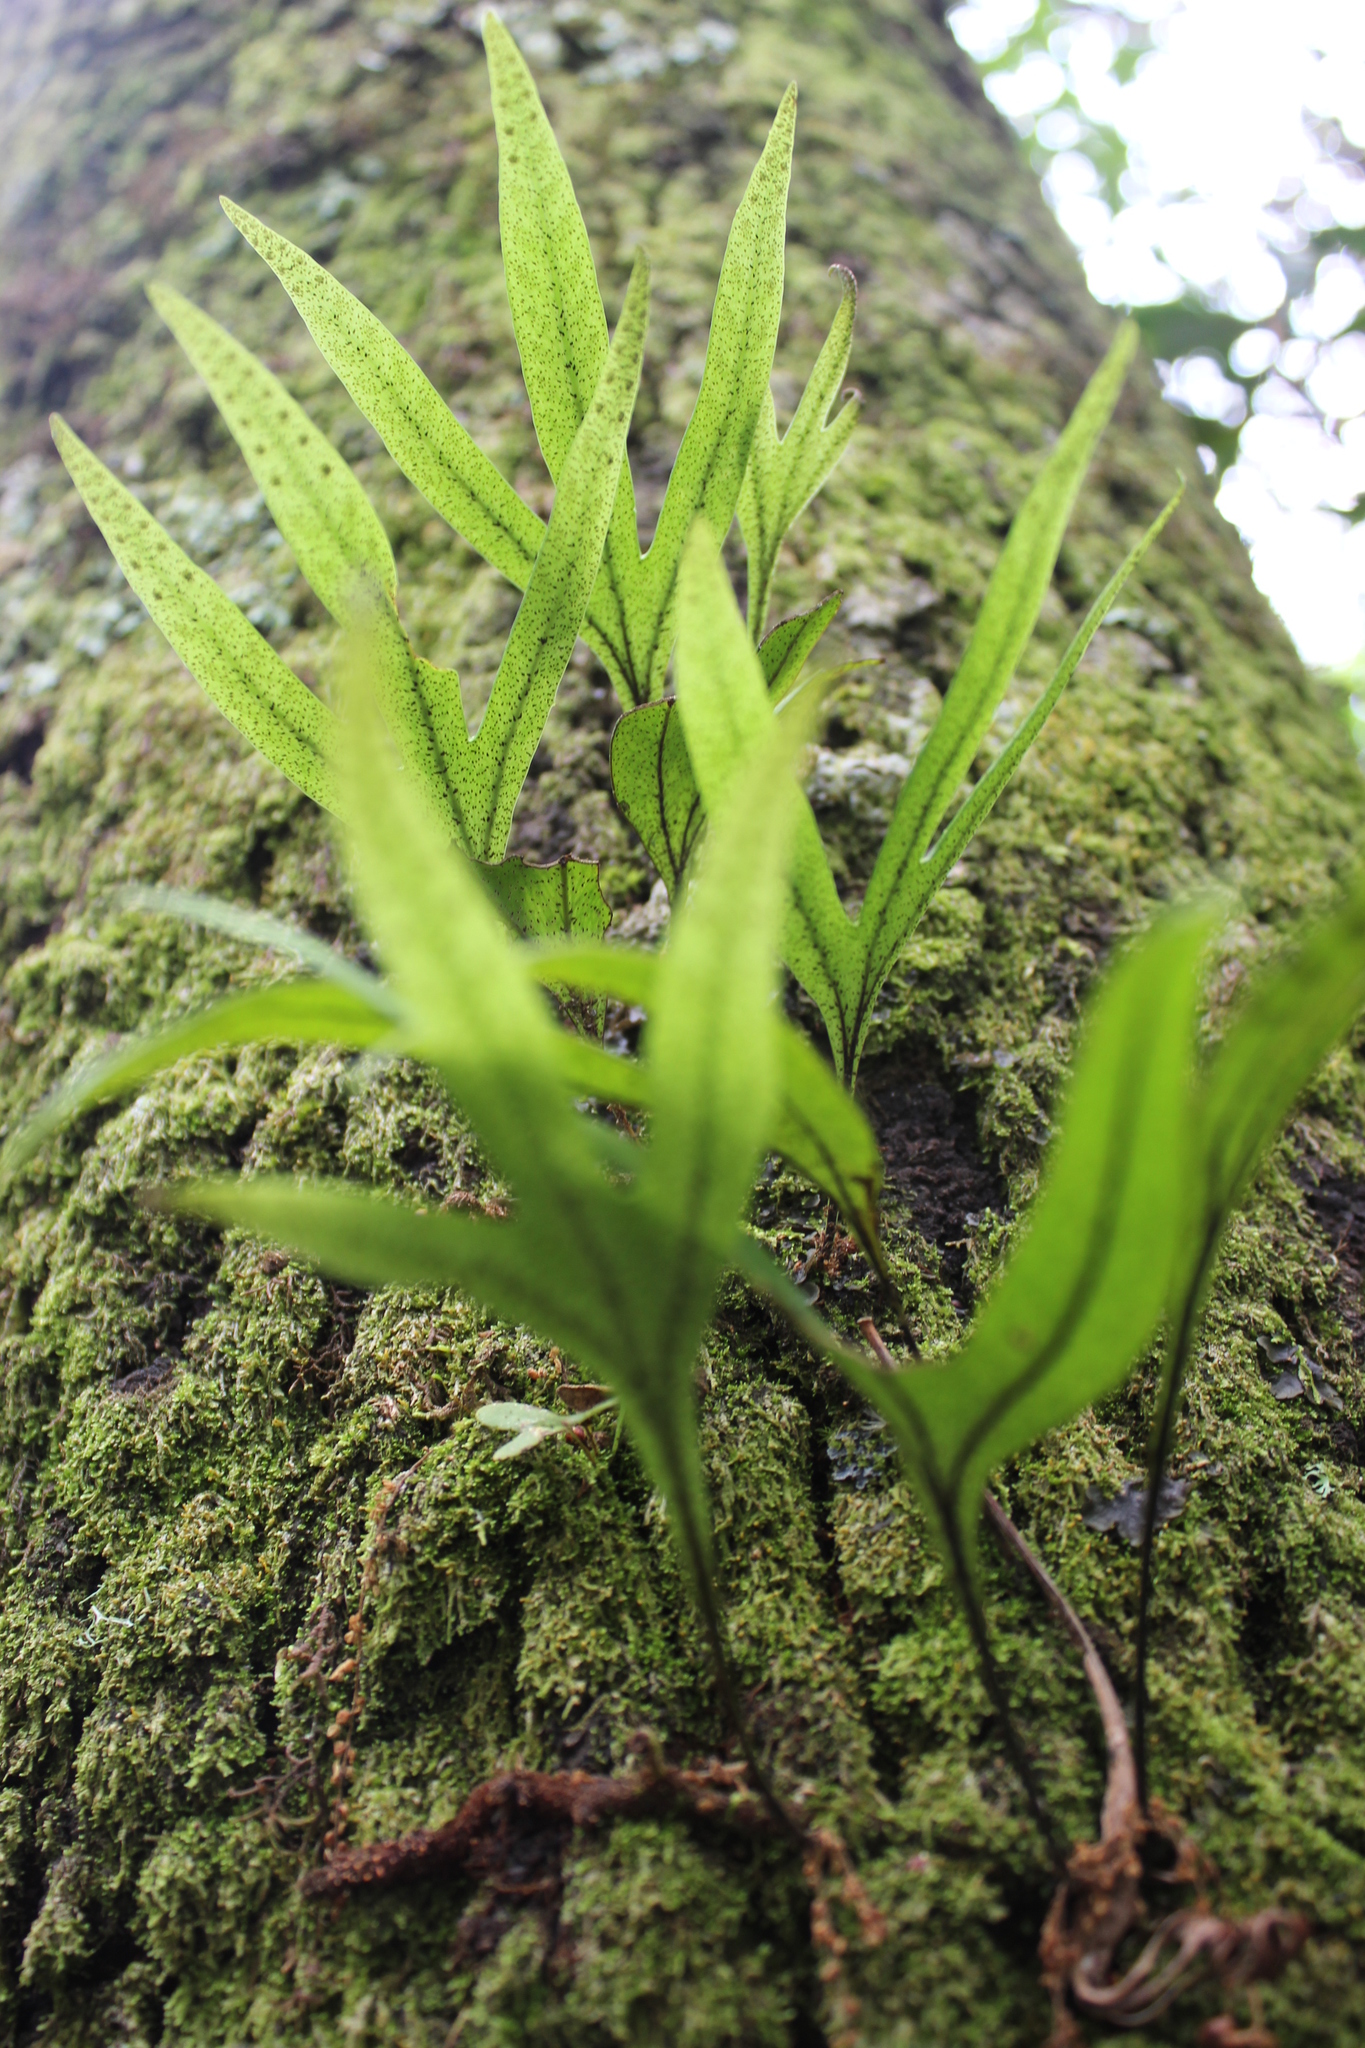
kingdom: Plantae
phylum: Tracheophyta
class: Polypodiopsida
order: Polypodiales
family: Polypodiaceae
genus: Pleopeltis
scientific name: Pleopeltis angusta
